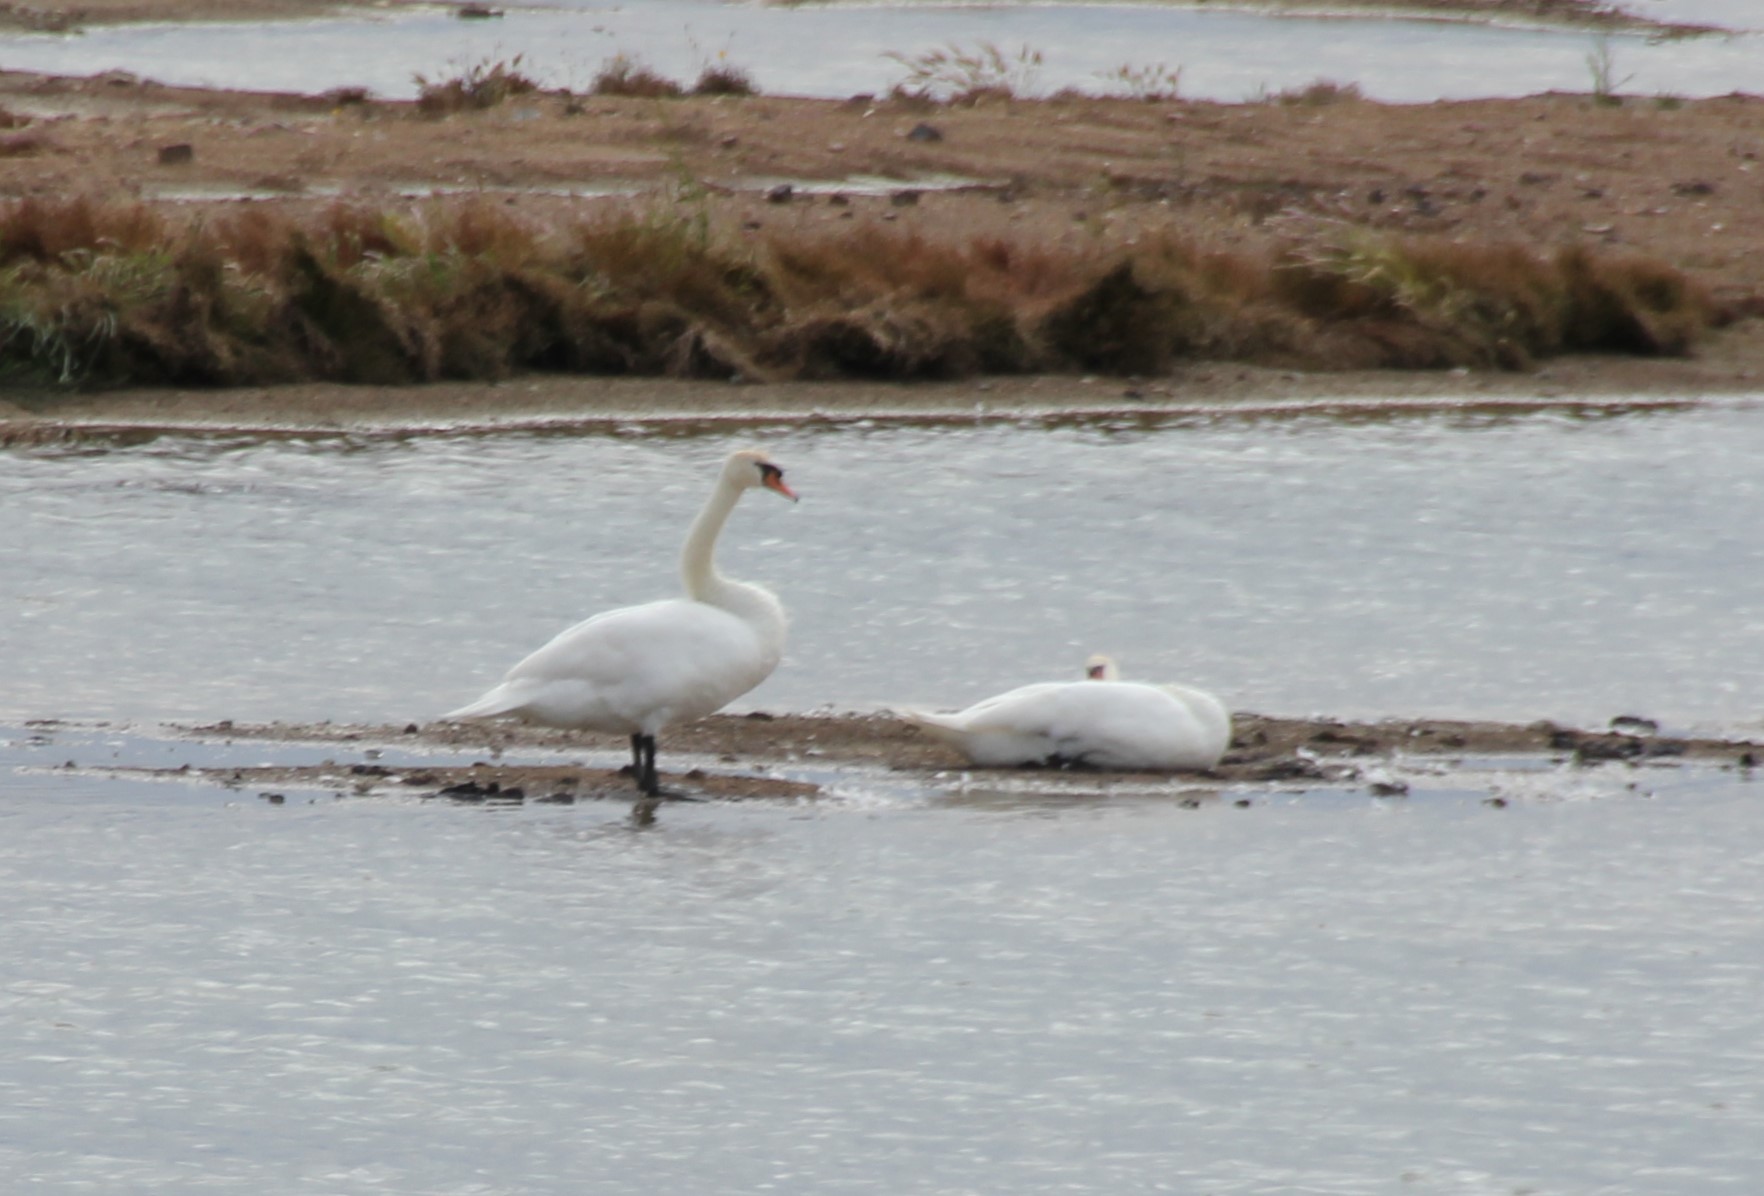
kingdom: Animalia
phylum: Chordata
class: Aves
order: Anseriformes
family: Anatidae
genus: Cygnus
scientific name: Cygnus olor
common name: Mute swan
